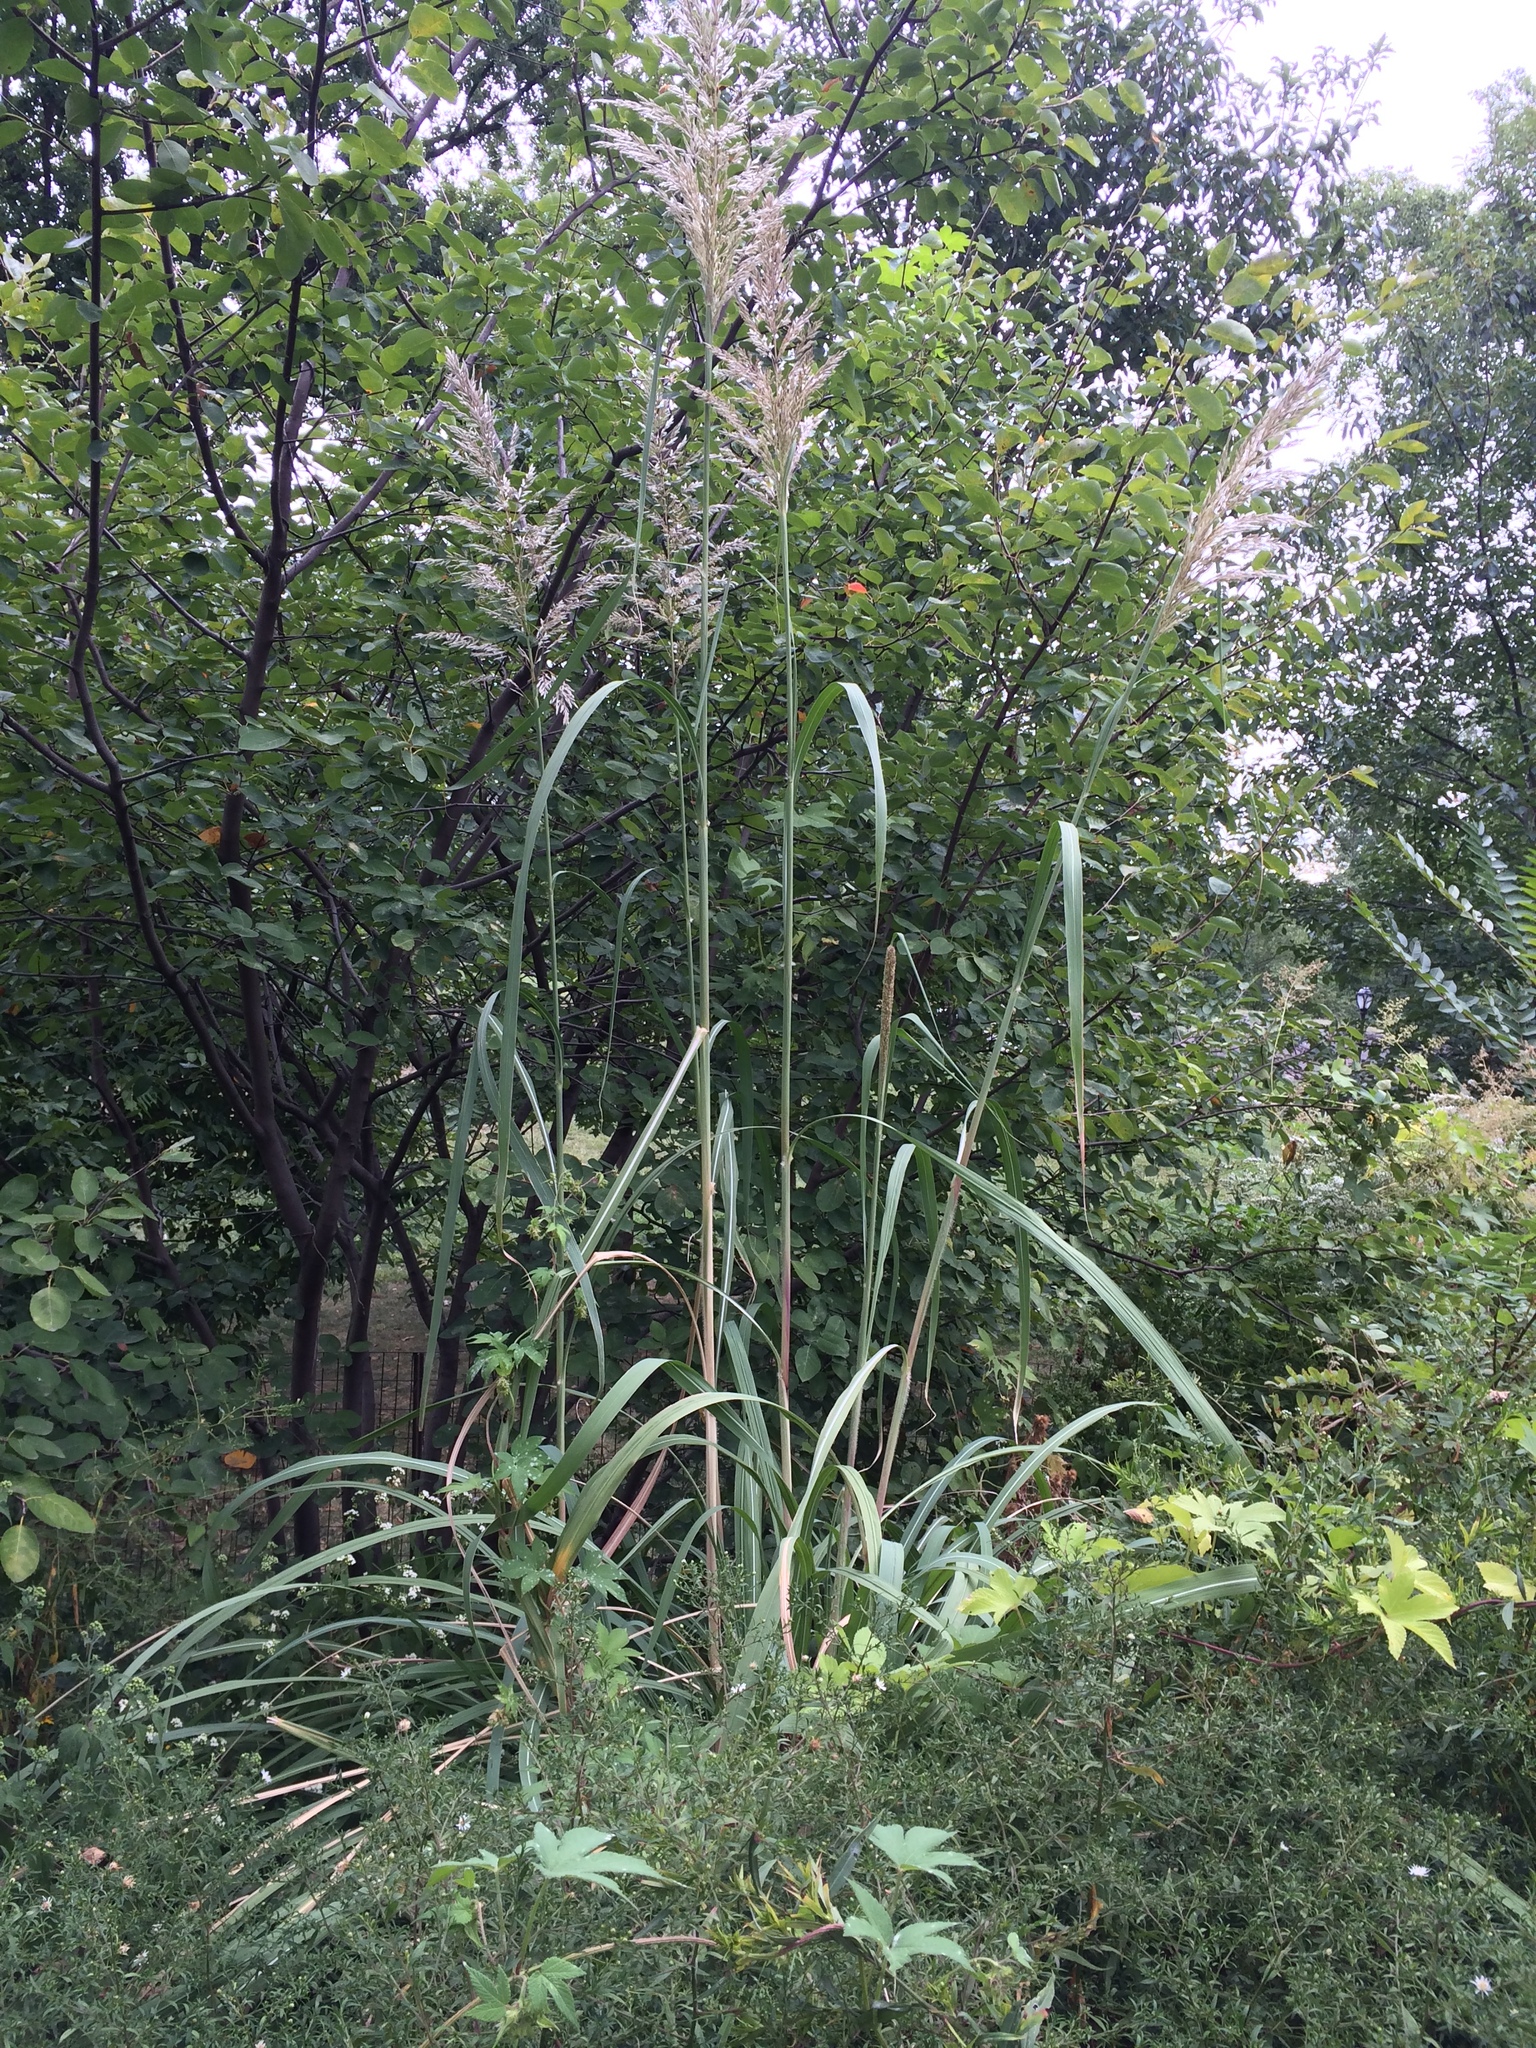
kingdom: Plantae
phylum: Tracheophyta
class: Liliopsida
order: Poales
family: Poaceae
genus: Tripidium
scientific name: Tripidium ravennae
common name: Ravenna grass
